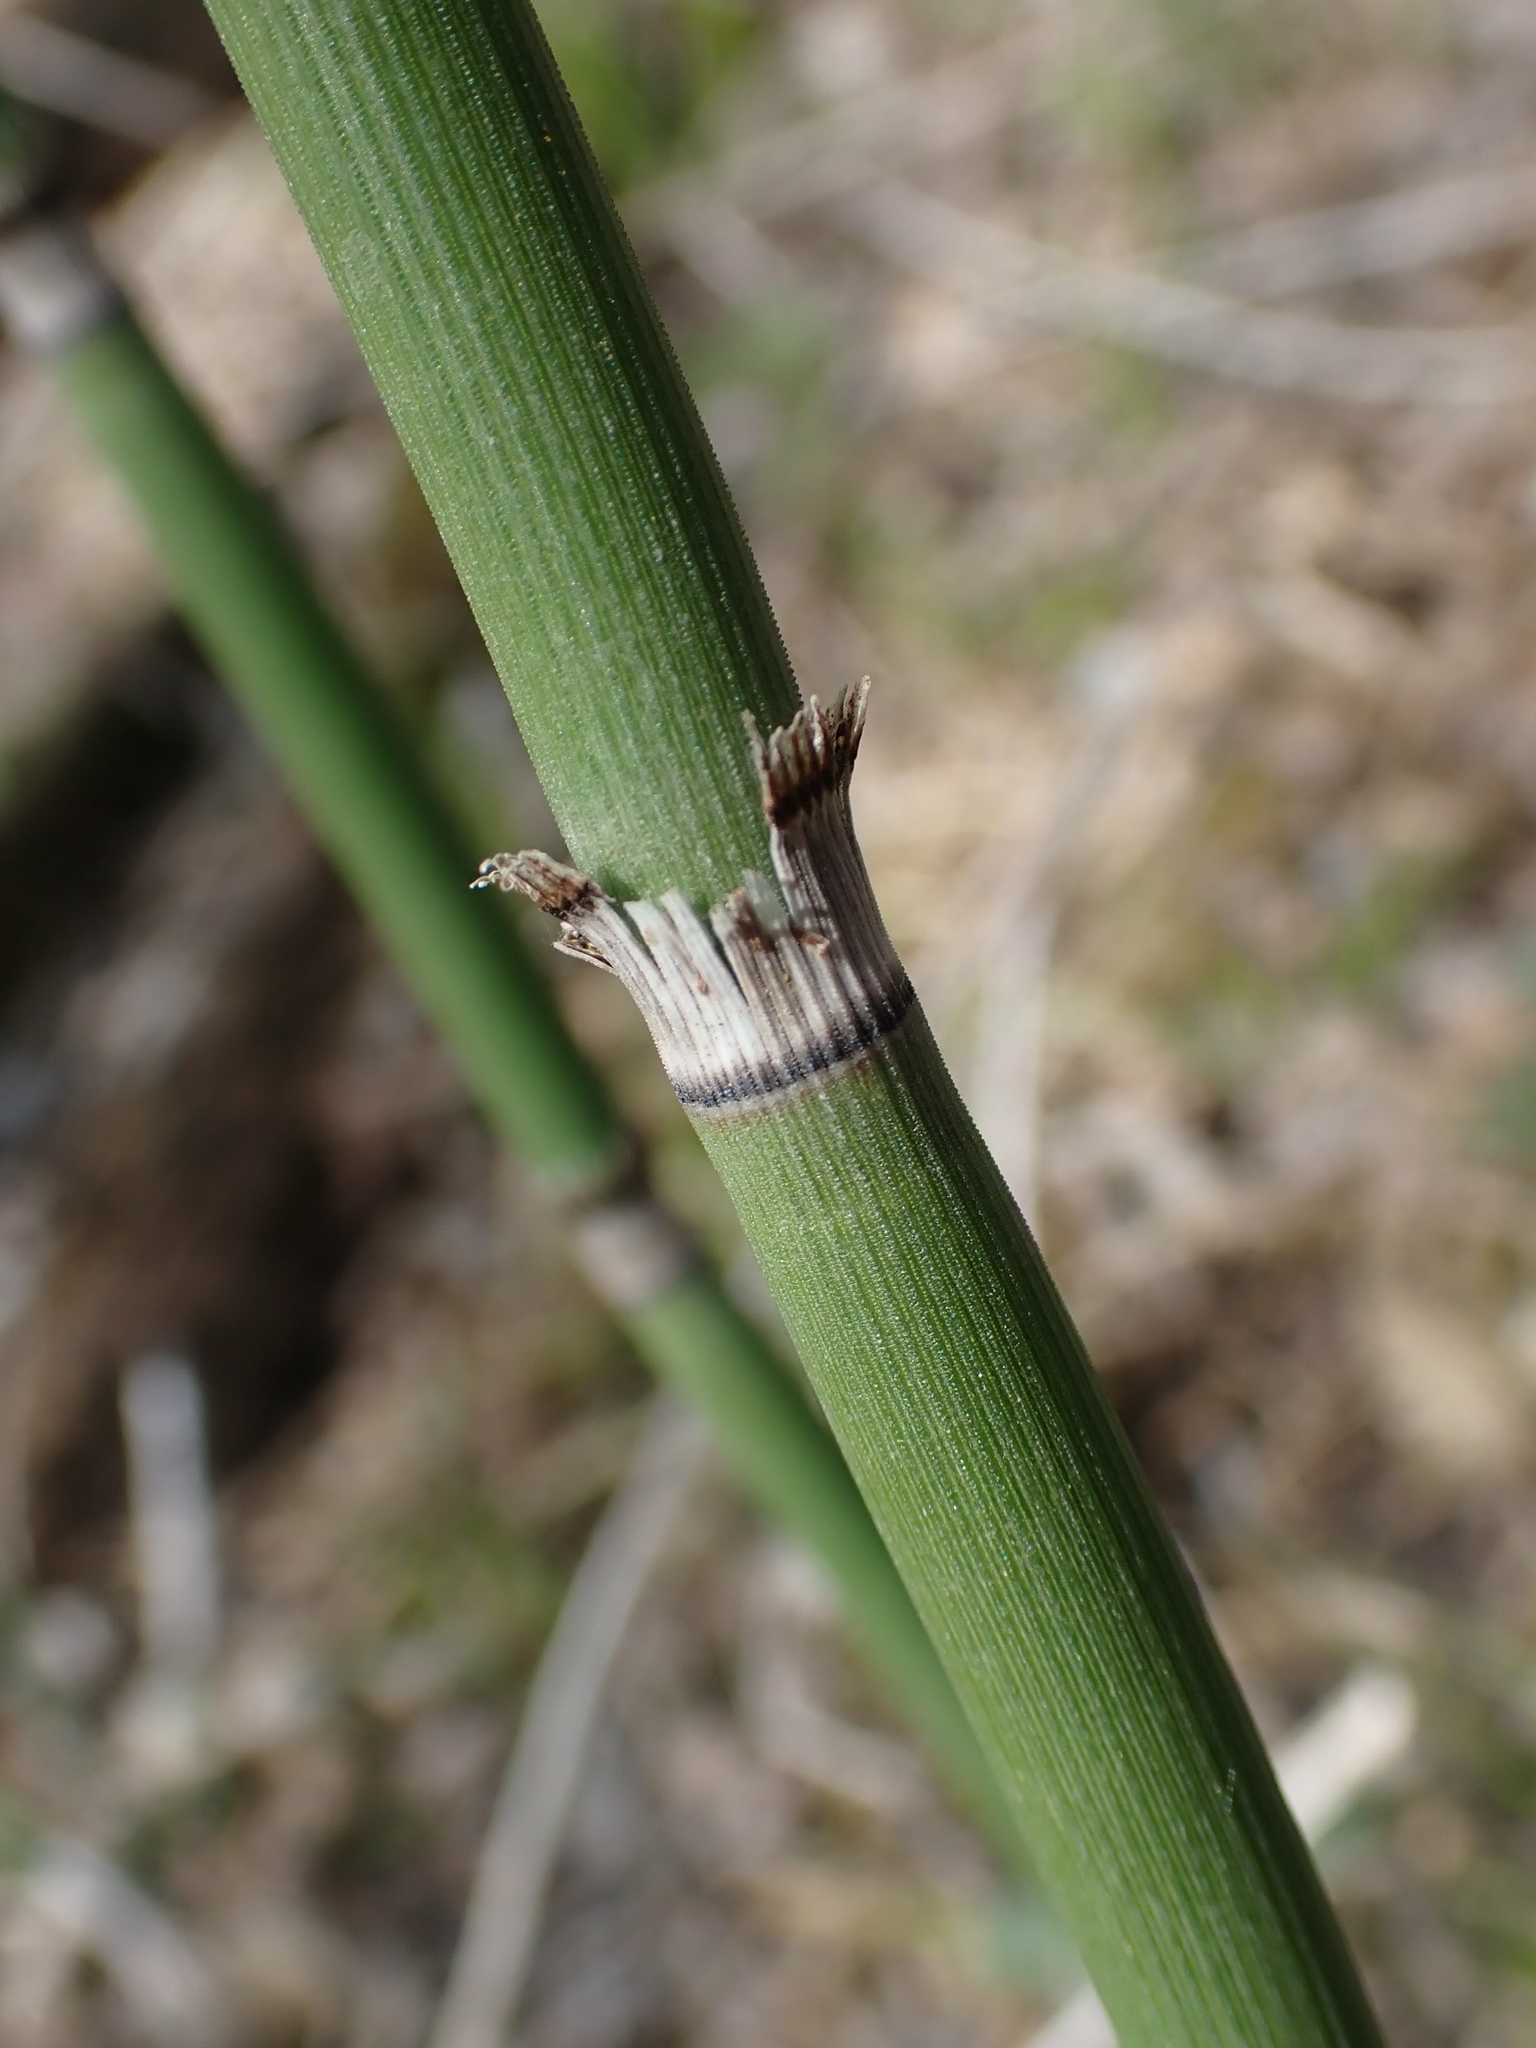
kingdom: Plantae
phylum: Tracheophyta
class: Polypodiopsida
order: Equisetales
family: Equisetaceae
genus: Equisetum
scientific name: Equisetum praealtum
